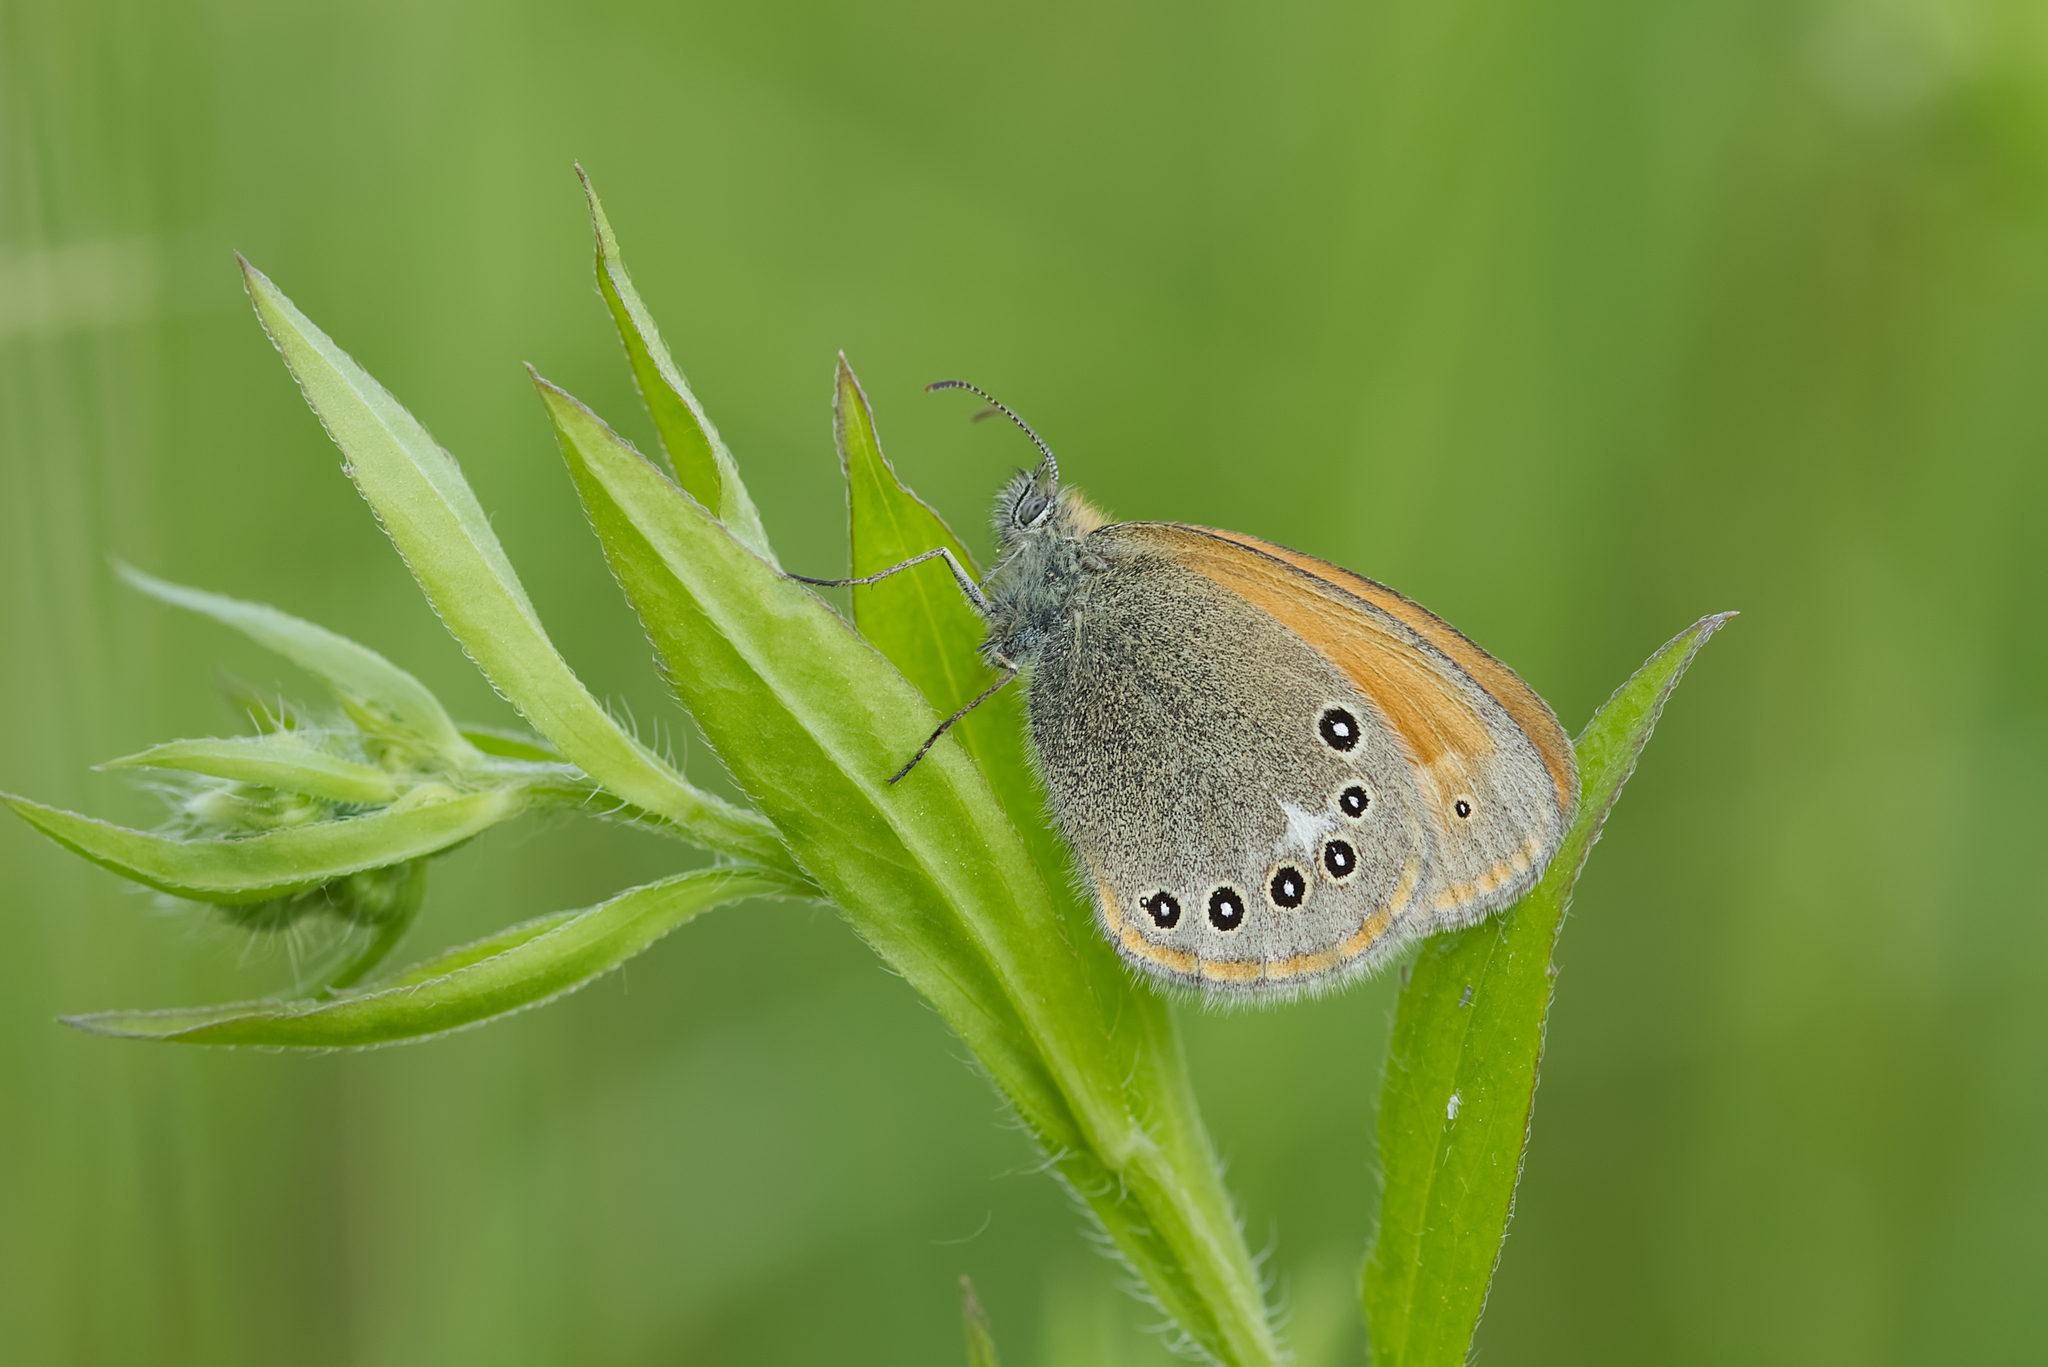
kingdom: Animalia
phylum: Arthropoda
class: Insecta
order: Lepidoptera
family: Nymphalidae
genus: Coenonympha
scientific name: Coenonympha iphis
